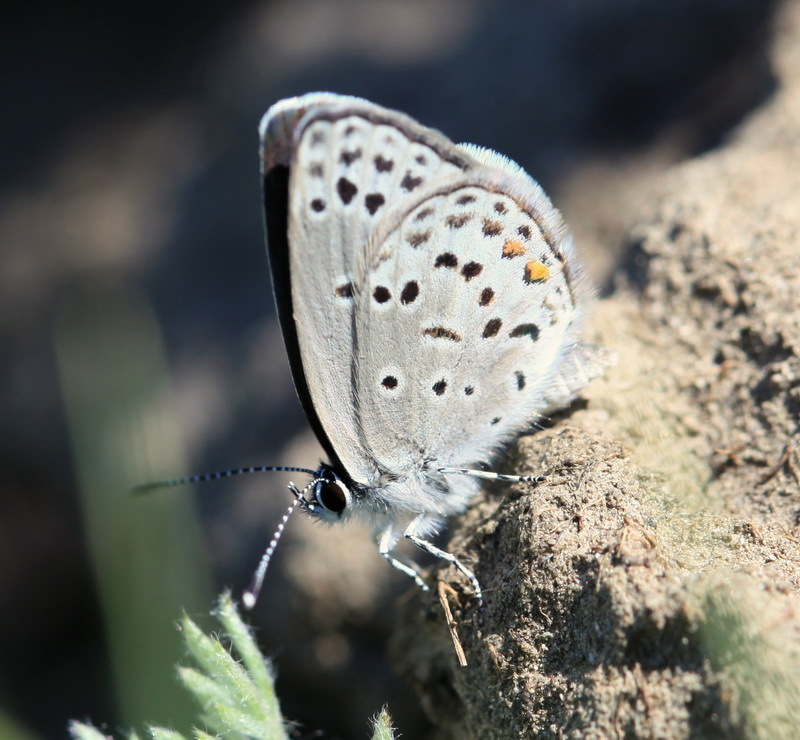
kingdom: Animalia
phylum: Arthropoda
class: Insecta
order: Lepidoptera
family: Lycaenidae
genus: Tongeia
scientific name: Tongeia fischeri
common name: Fischer's blue
